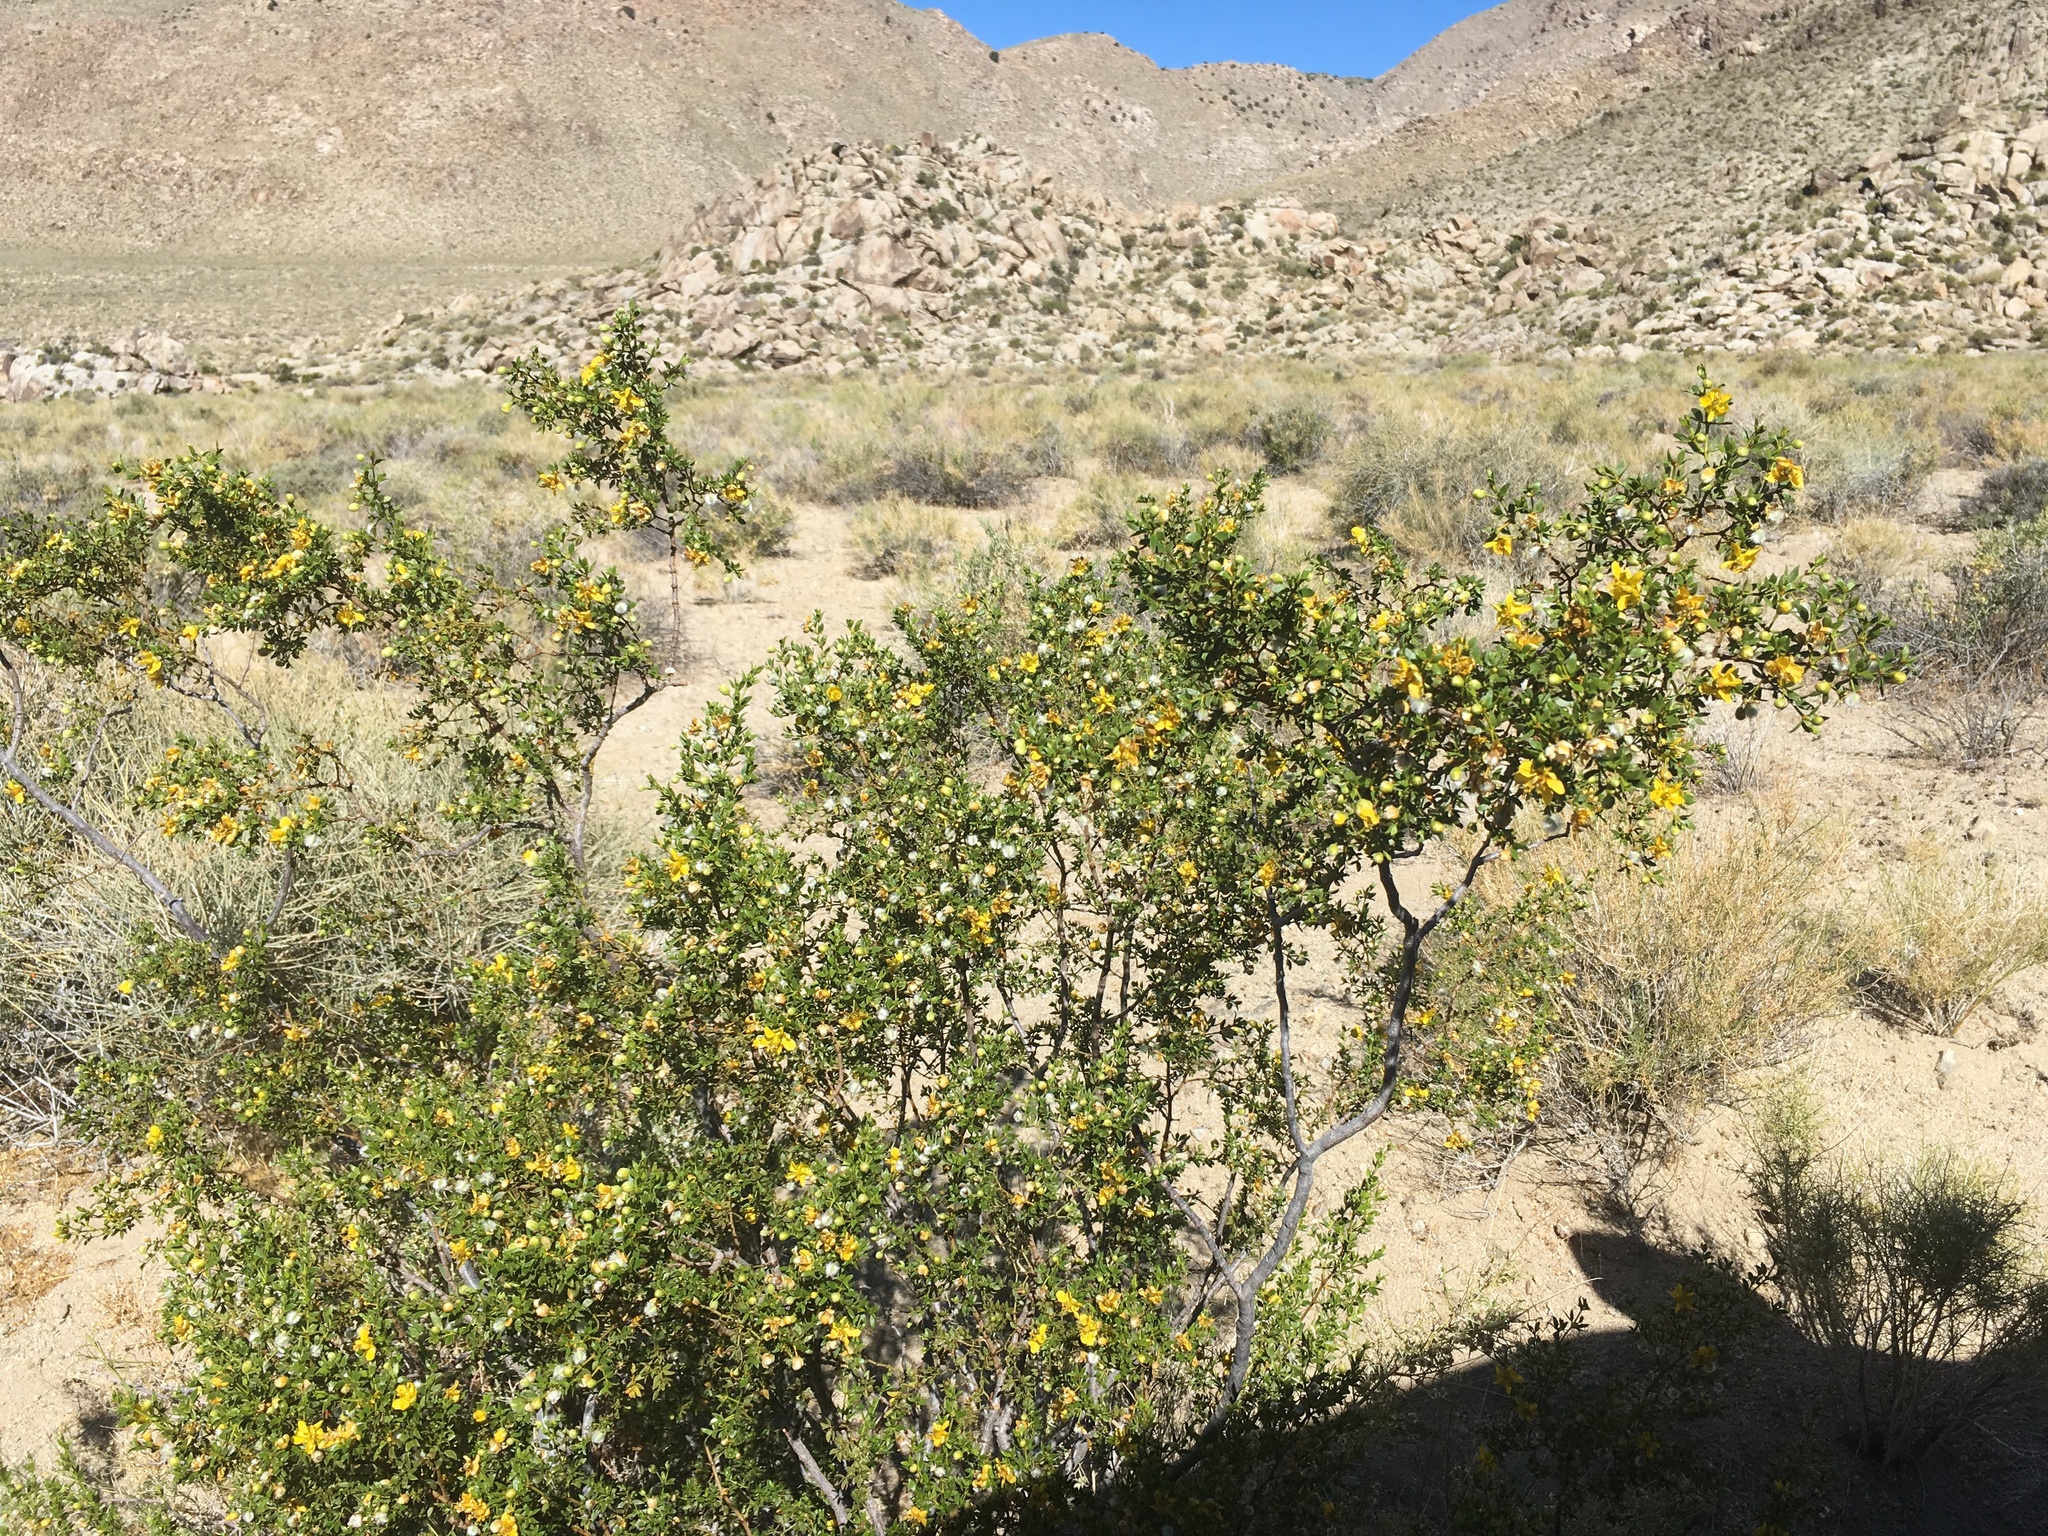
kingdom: Plantae
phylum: Tracheophyta
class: Magnoliopsida
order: Zygophyllales
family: Zygophyllaceae
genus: Larrea
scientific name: Larrea tridentata
